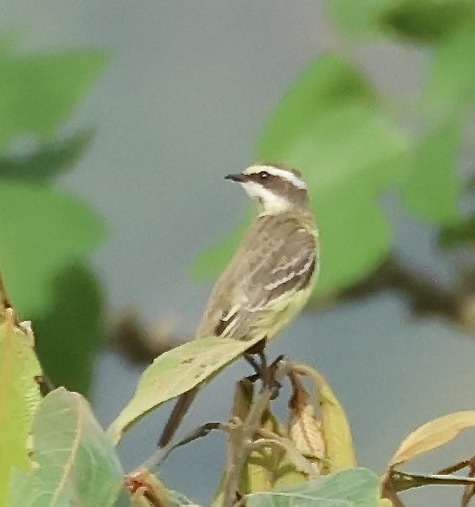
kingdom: Animalia
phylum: Chordata
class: Aves
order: Passeriformes
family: Tyrannidae
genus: Legatus
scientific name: Legatus leucophaius
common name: Piratic flycatcher
